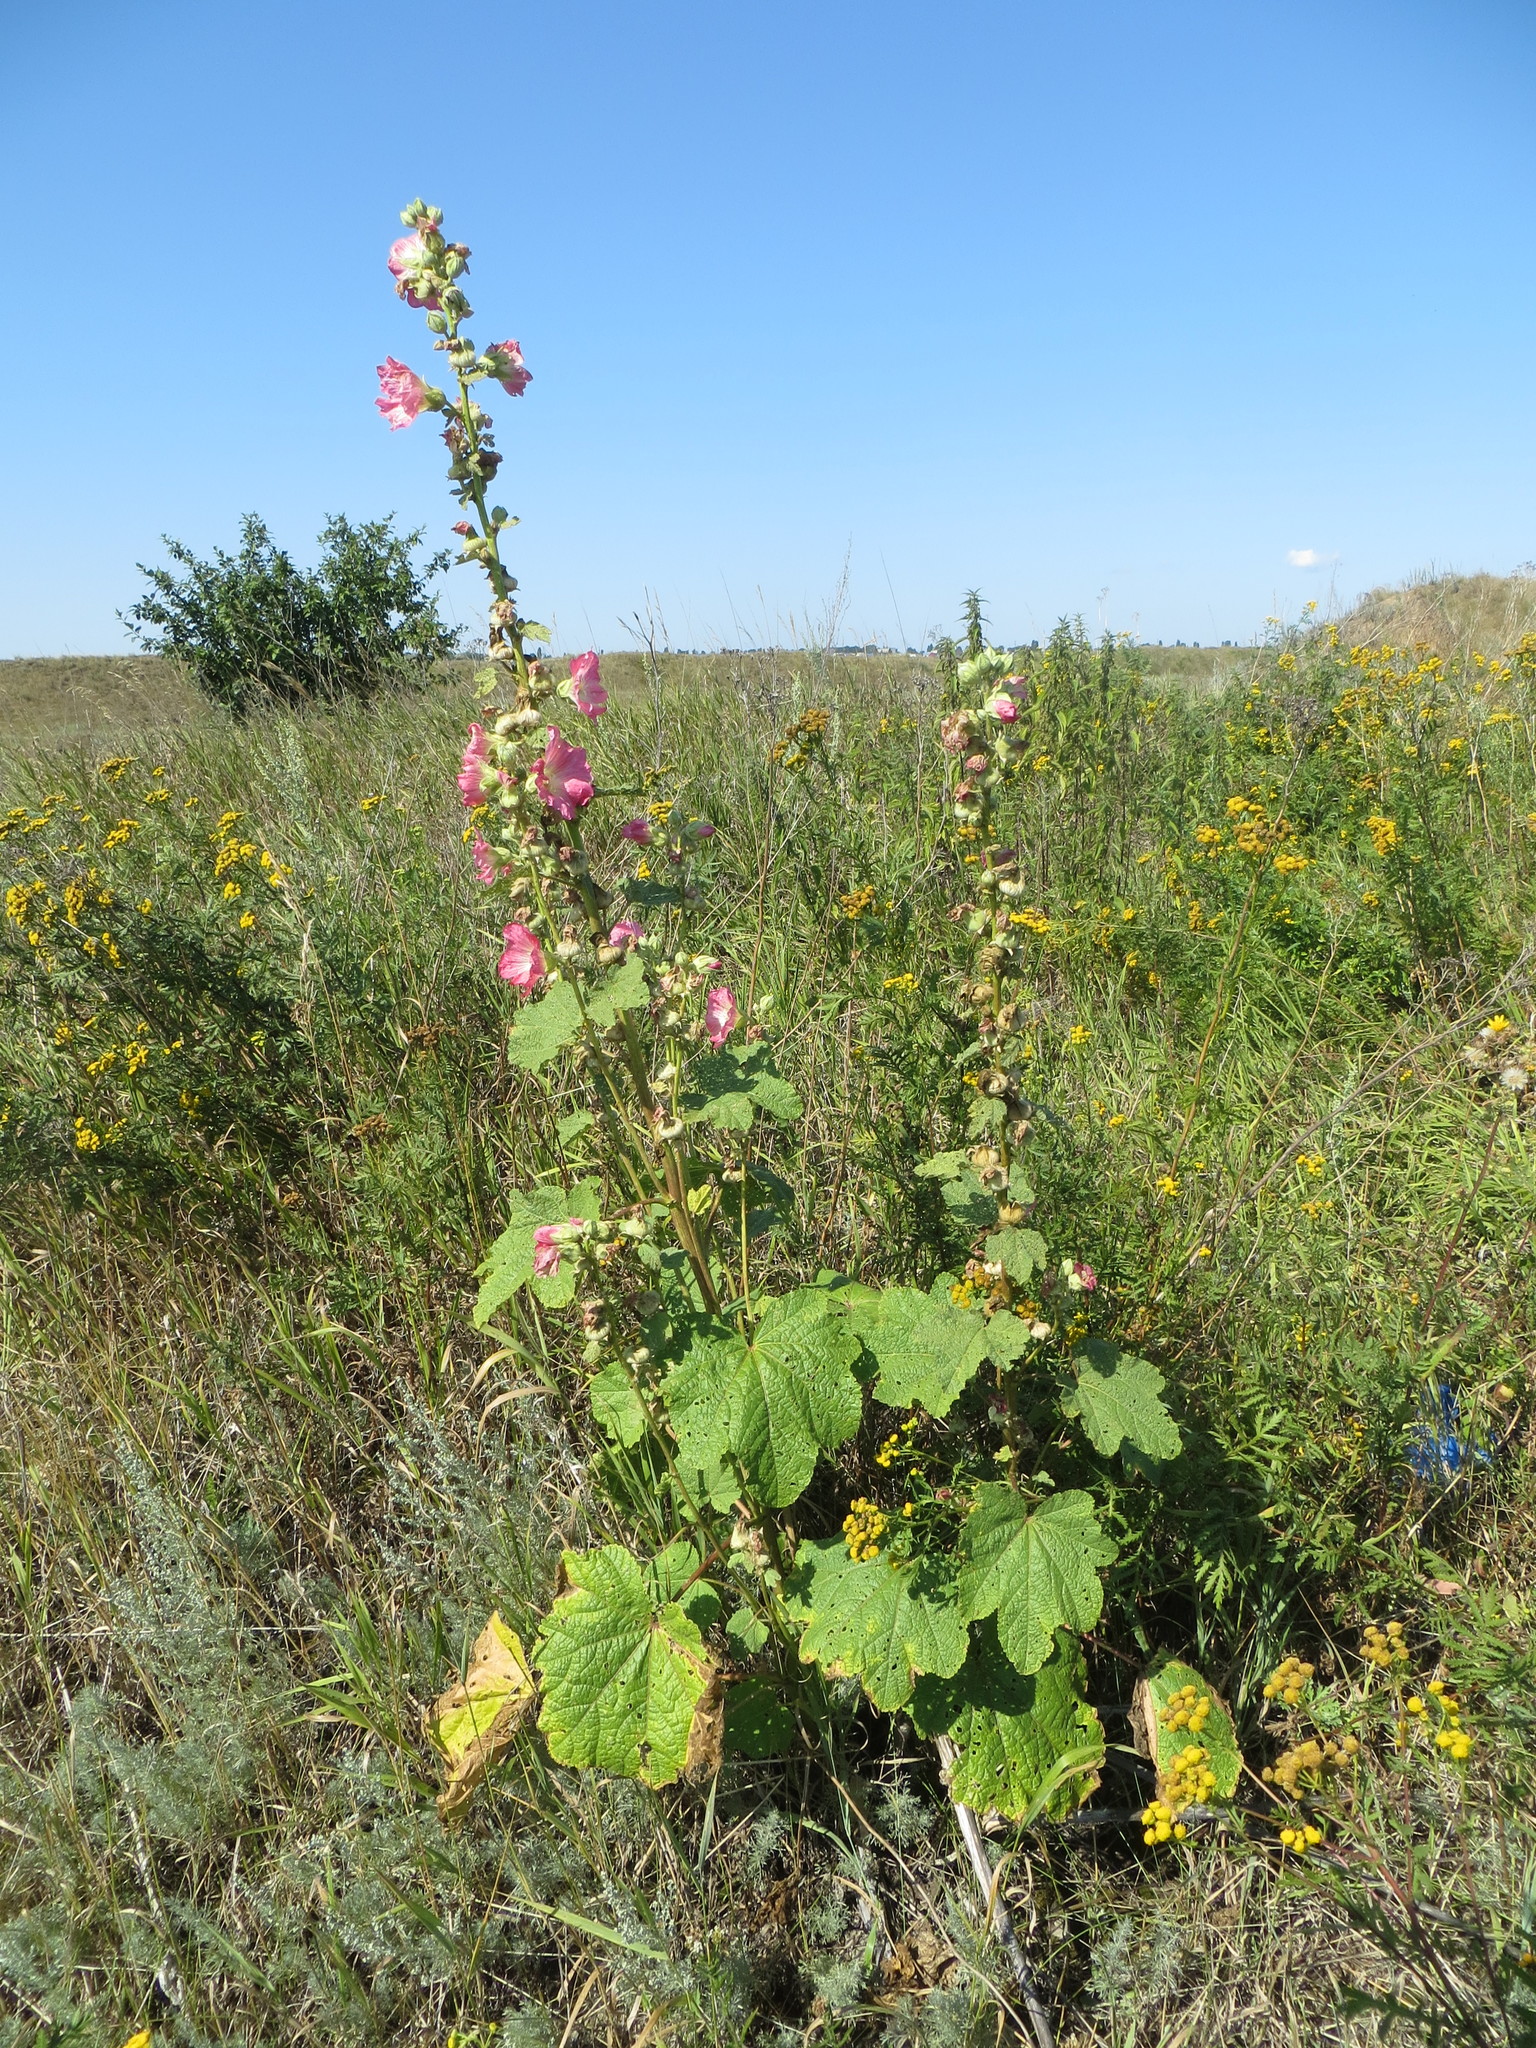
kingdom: Plantae
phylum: Tracheophyta
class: Magnoliopsida
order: Malvales
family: Malvaceae
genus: Alcea
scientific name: Alcea rosea
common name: Hollyhock
